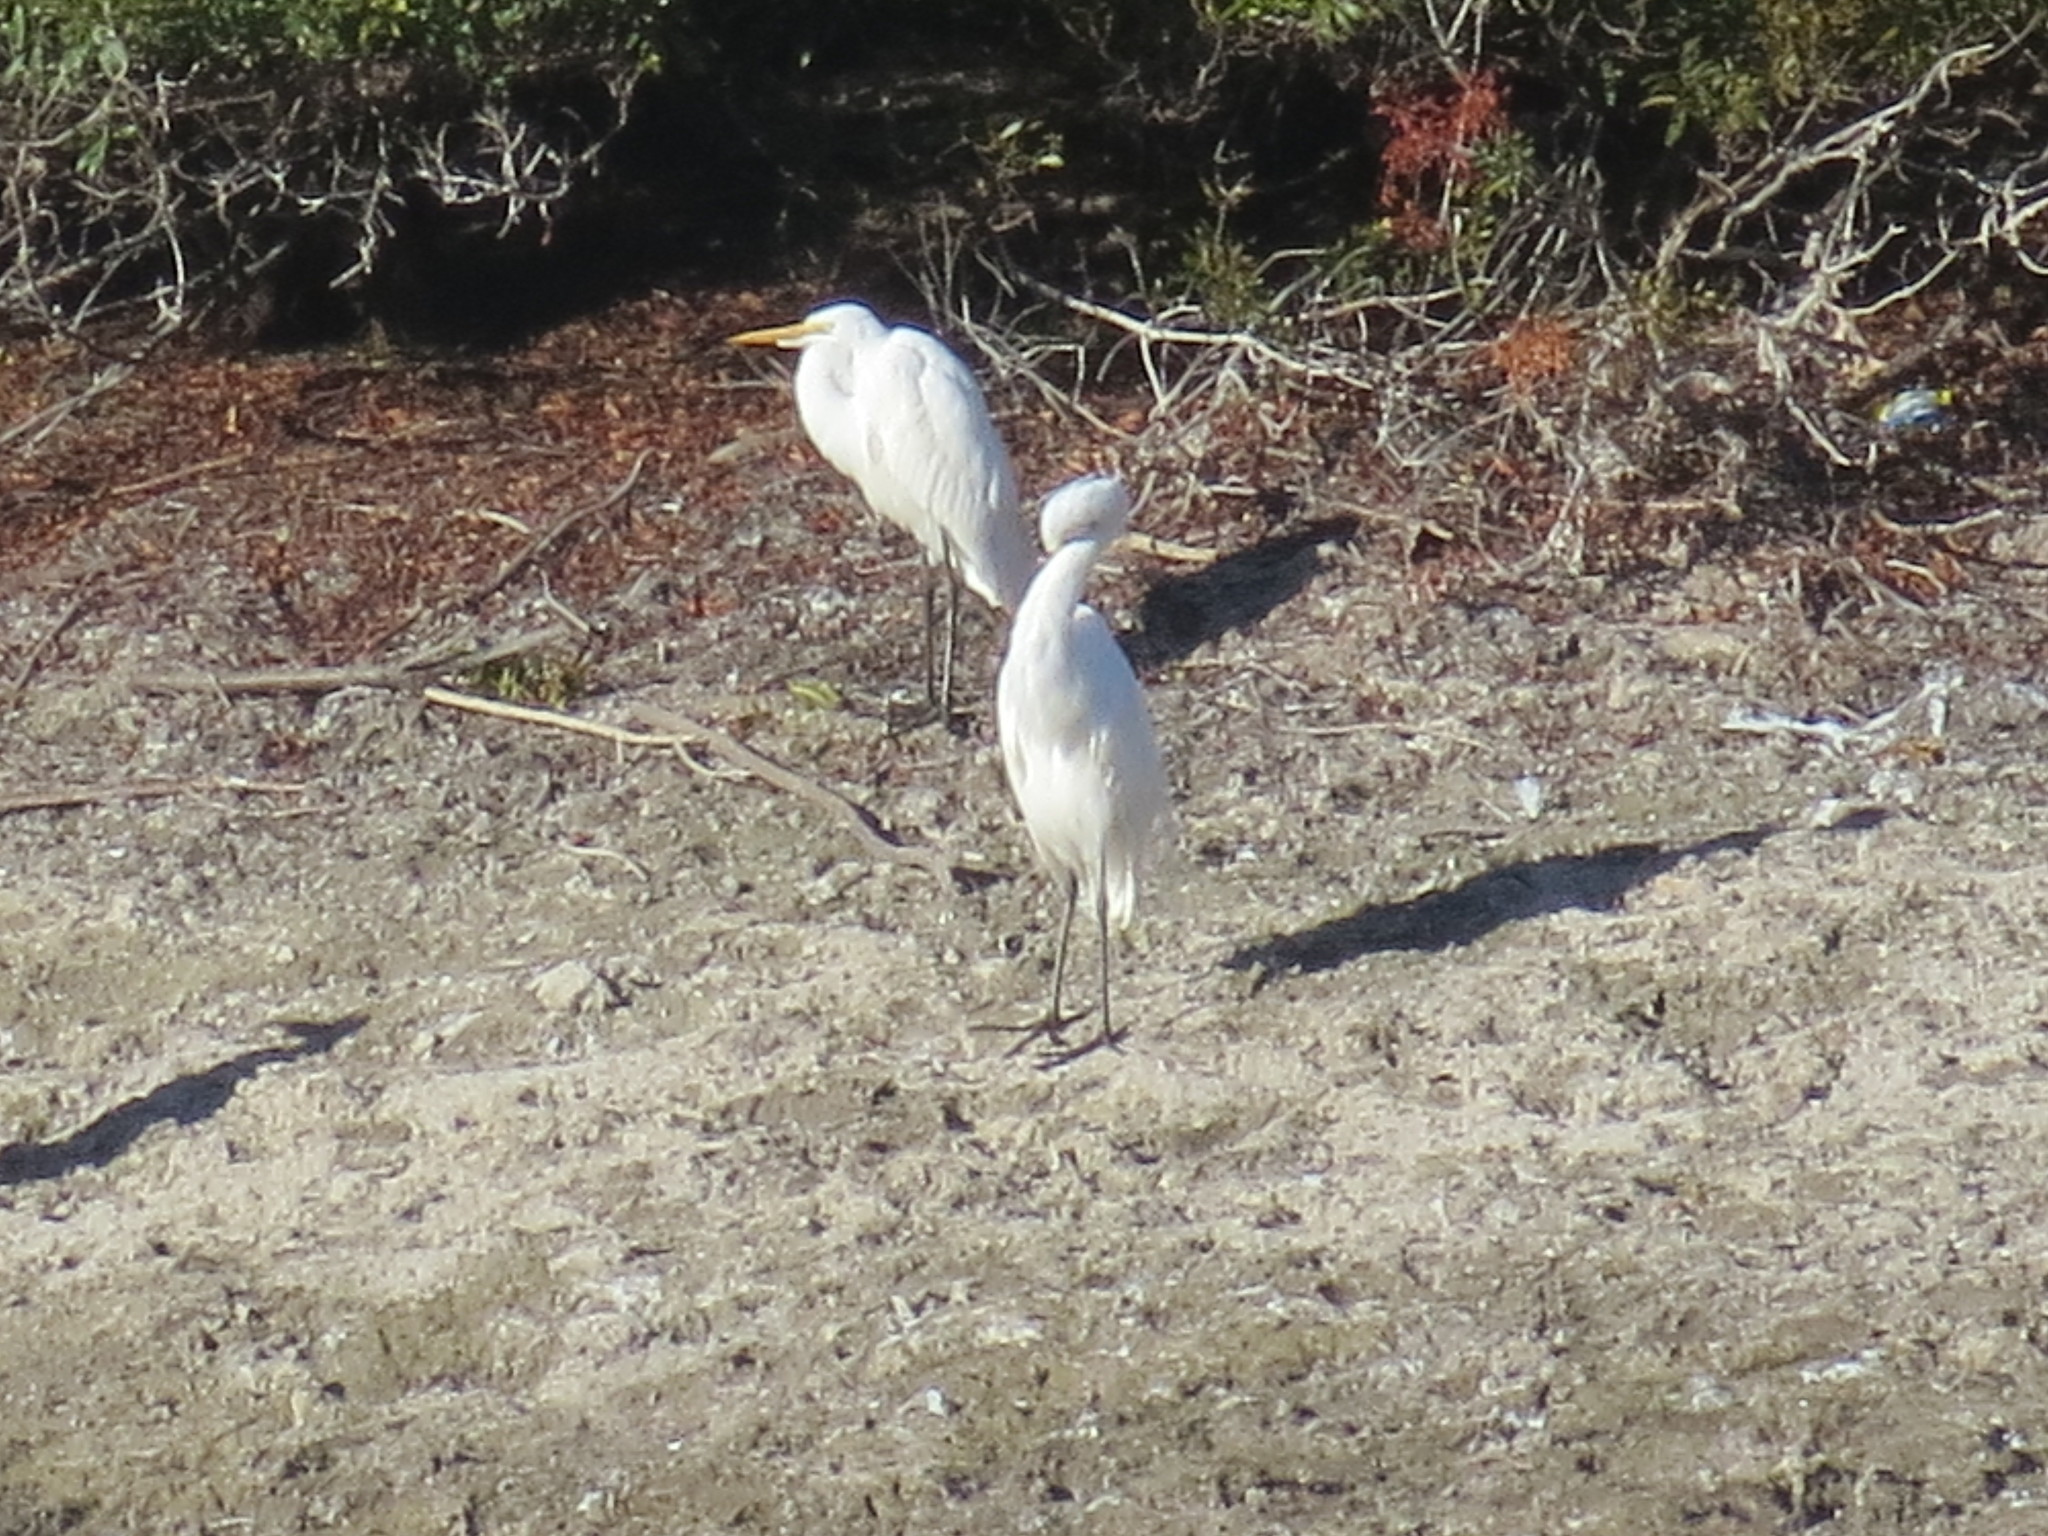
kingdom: Animalia
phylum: Chordata
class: Aves
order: Pelecaniformes
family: Ardeidae
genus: Ardea
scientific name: Ardea alba
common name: Great egret
